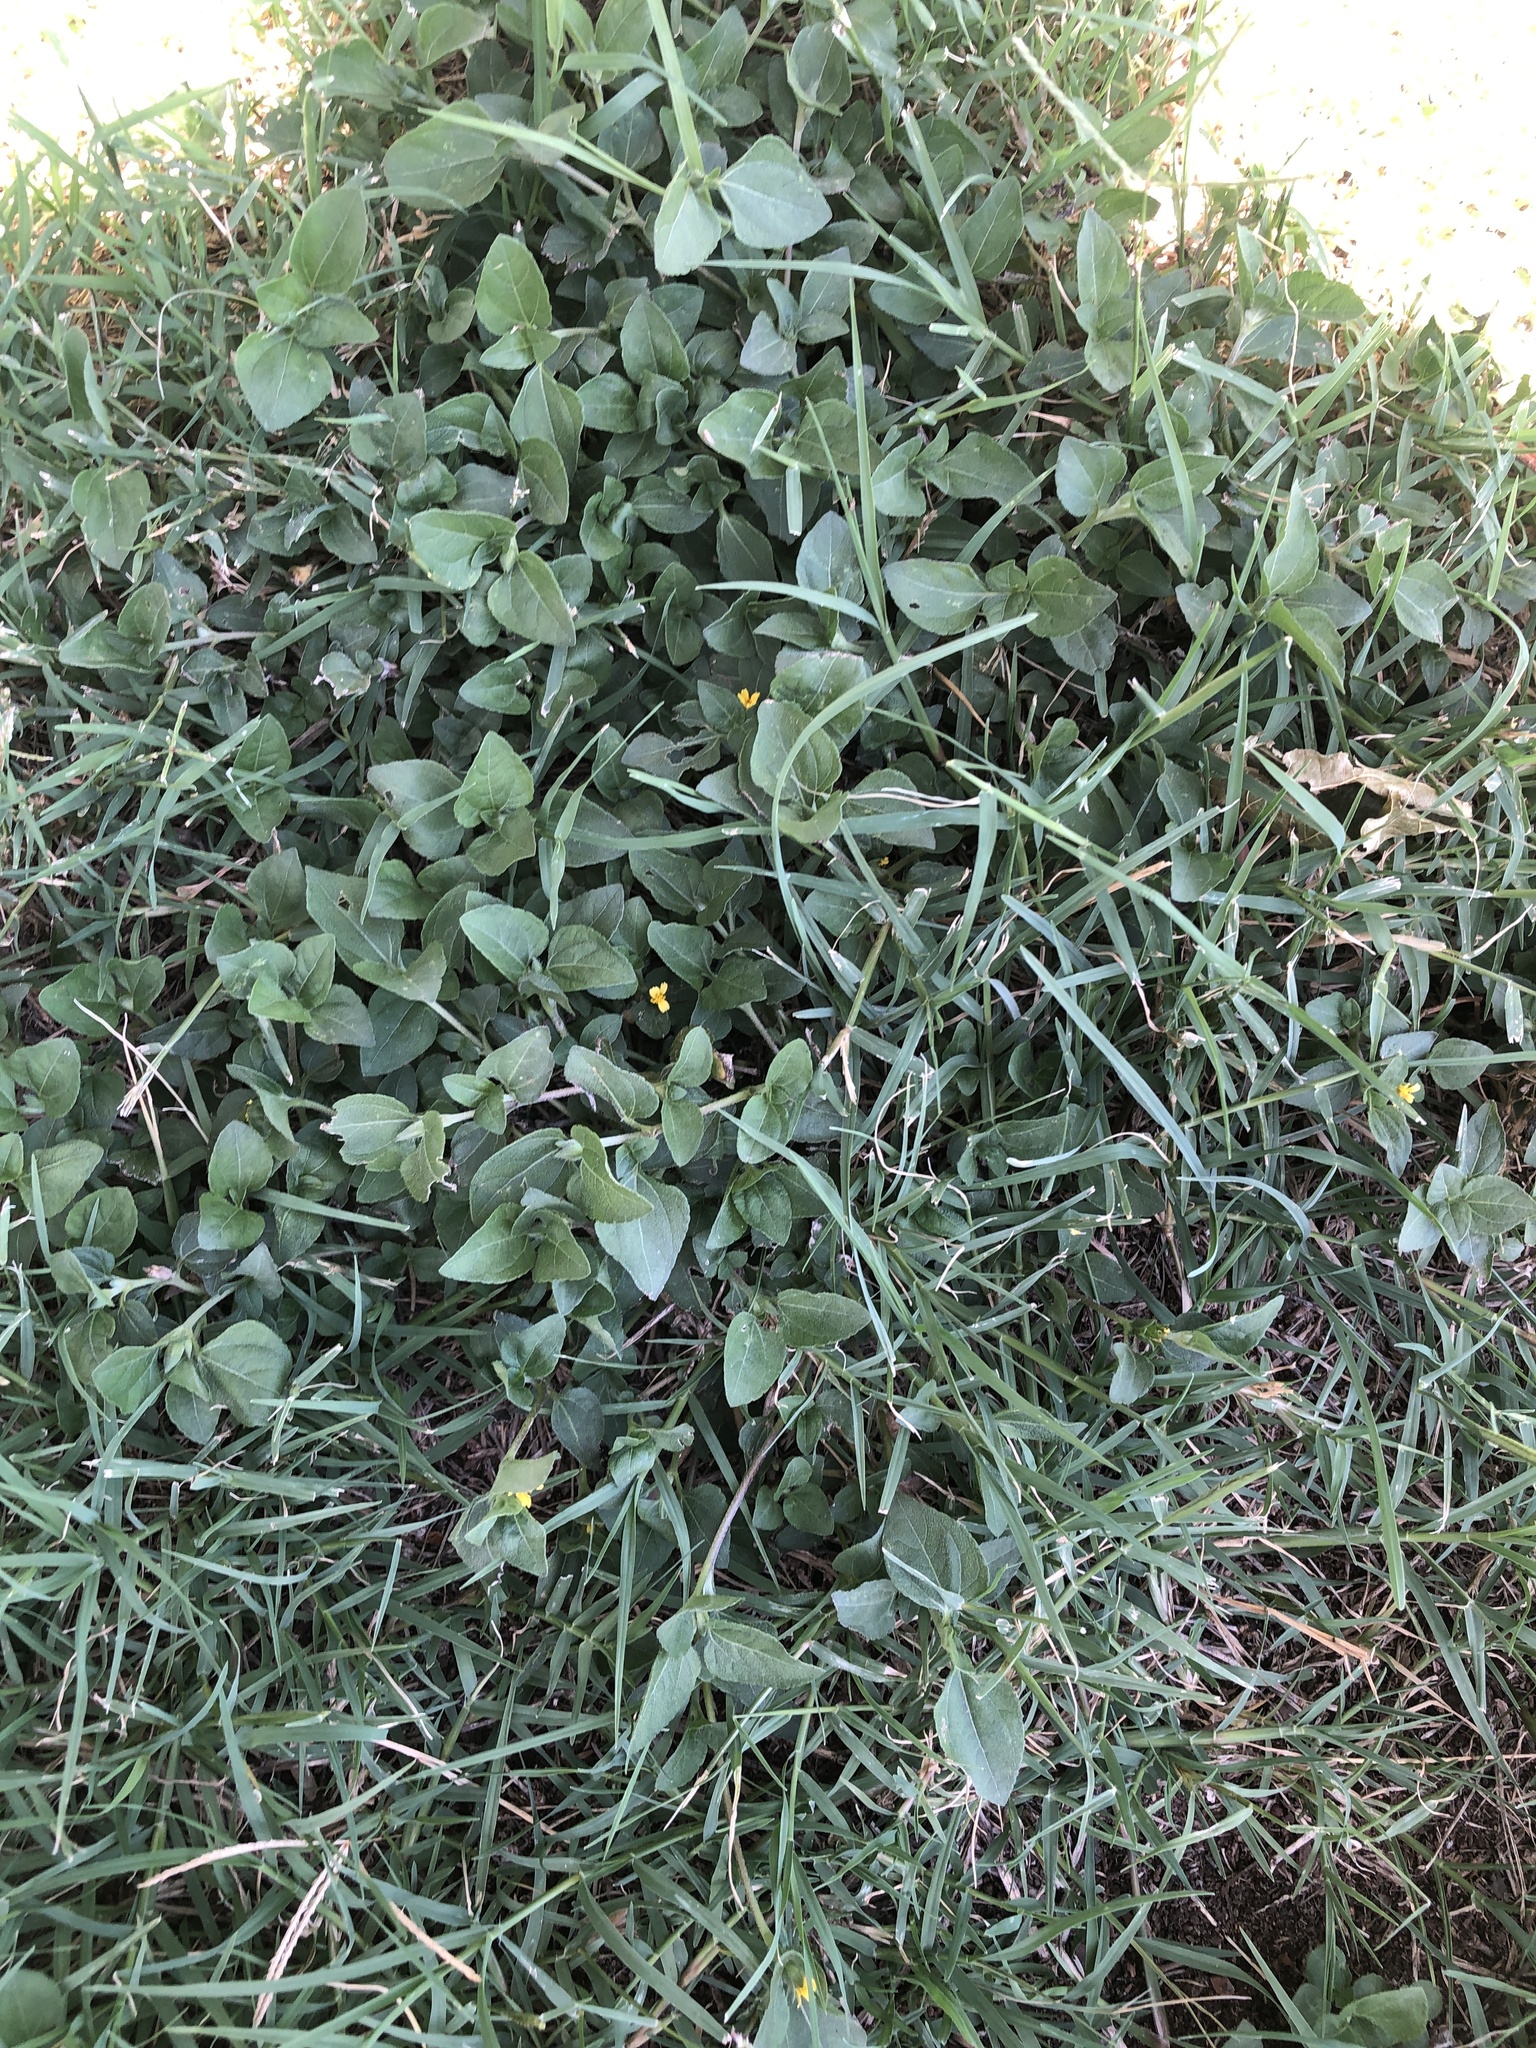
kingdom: Plantae
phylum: Tracheophyta
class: Magnoliopsida
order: Asterales
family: Asteraceae
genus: Calyptocarpus
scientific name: Calyptocarpus vialis
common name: Straggler daisy
